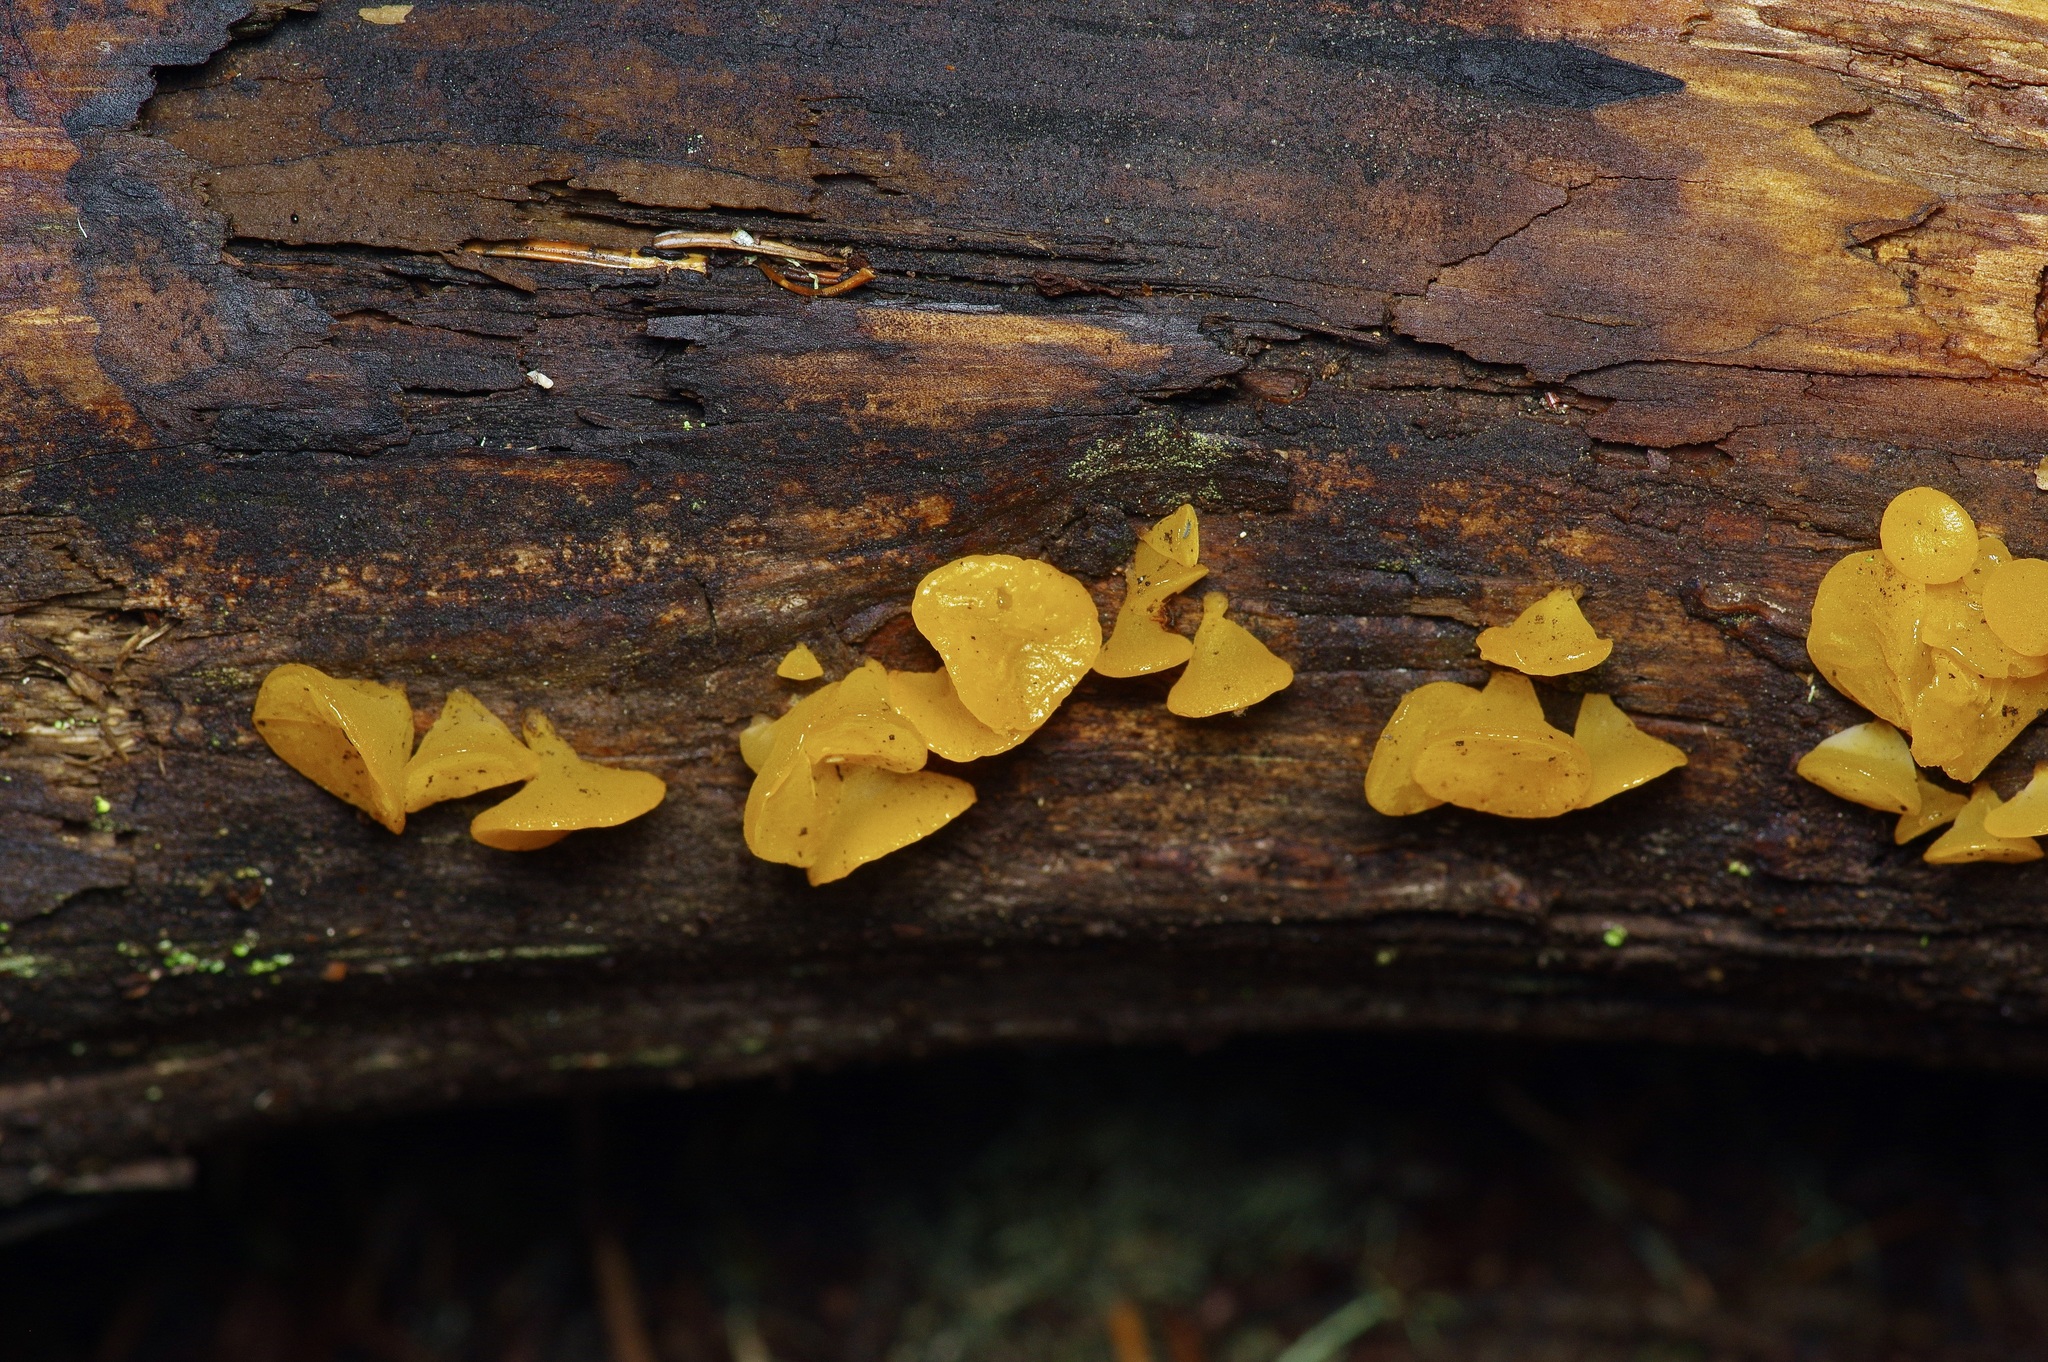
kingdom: Fungi
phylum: Basidiomycota
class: Dacrymycetes
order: Dacrymycetales
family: Dacrymycetaceae
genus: Guepiniopsis
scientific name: Guepiniopsis alpina
